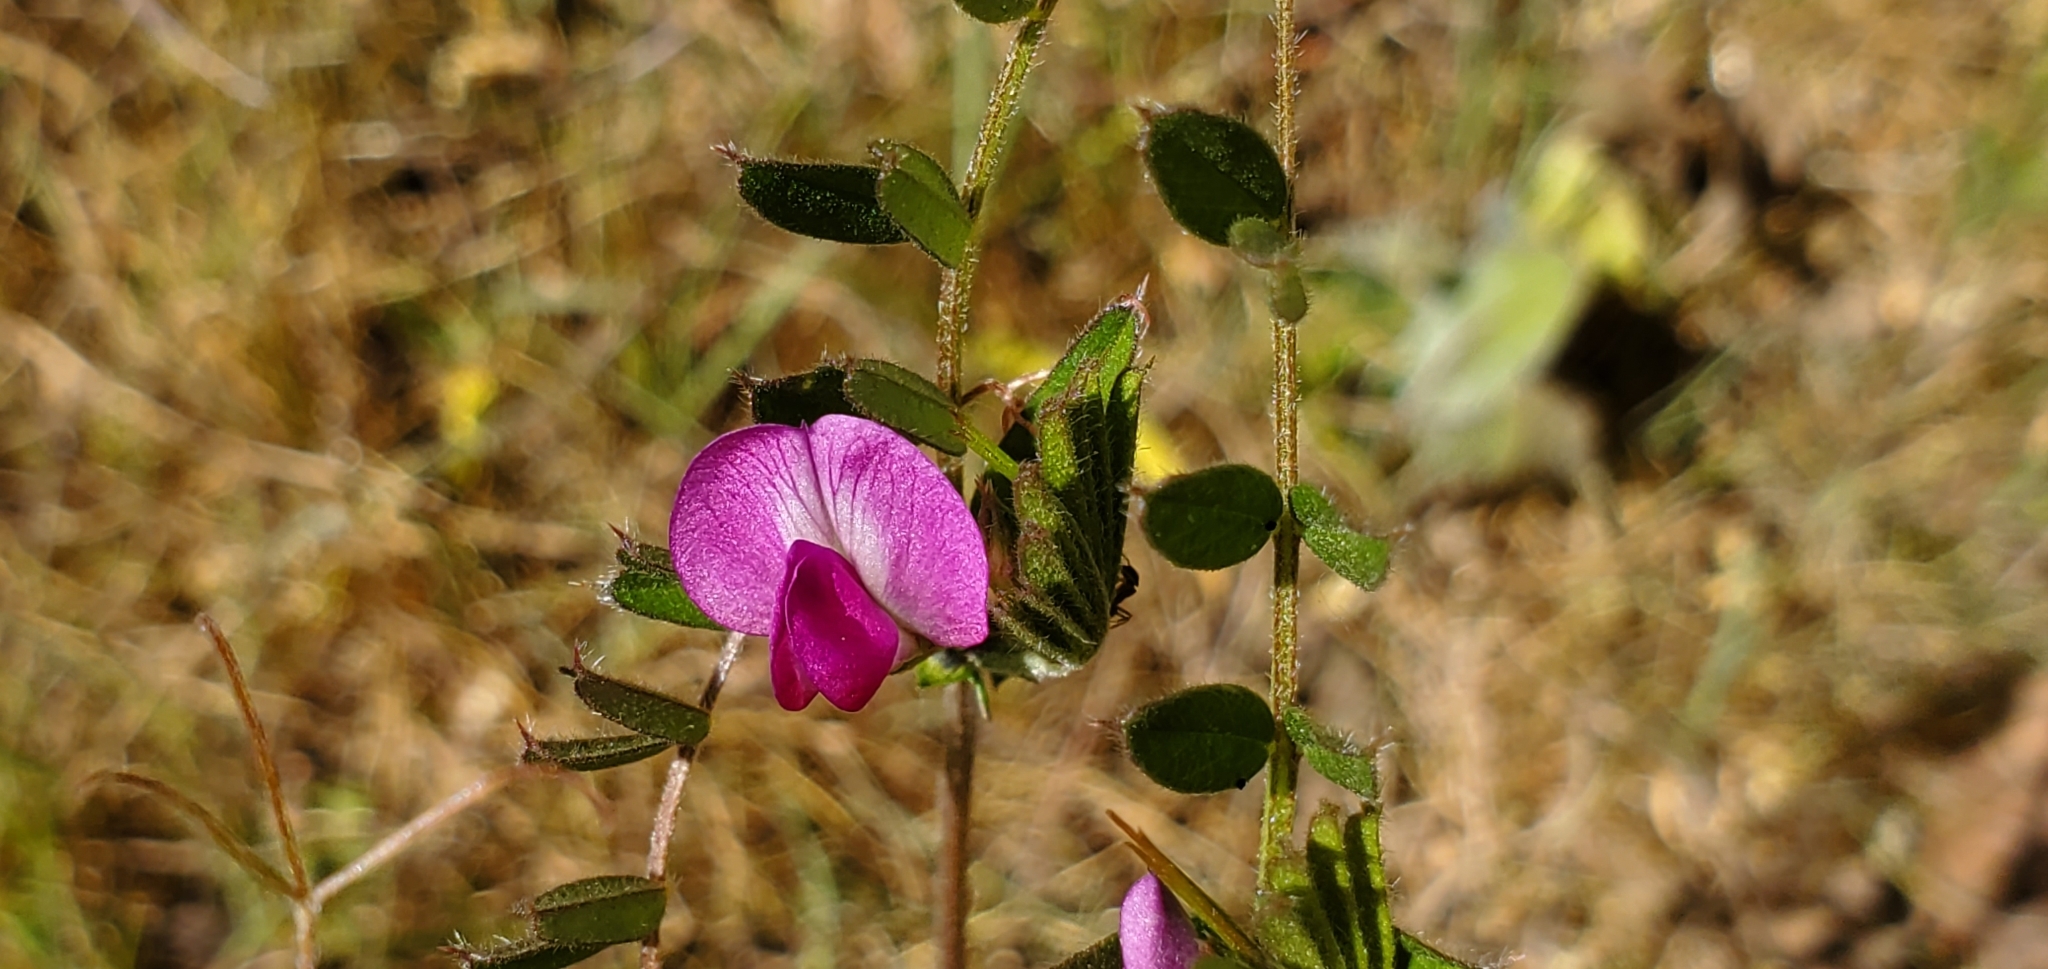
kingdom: Plantae
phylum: Tracheophyta
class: Magnoliopsida
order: Fabales
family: Fabaceae
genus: Vicia
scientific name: Vicia sativa
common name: Garden vetch
